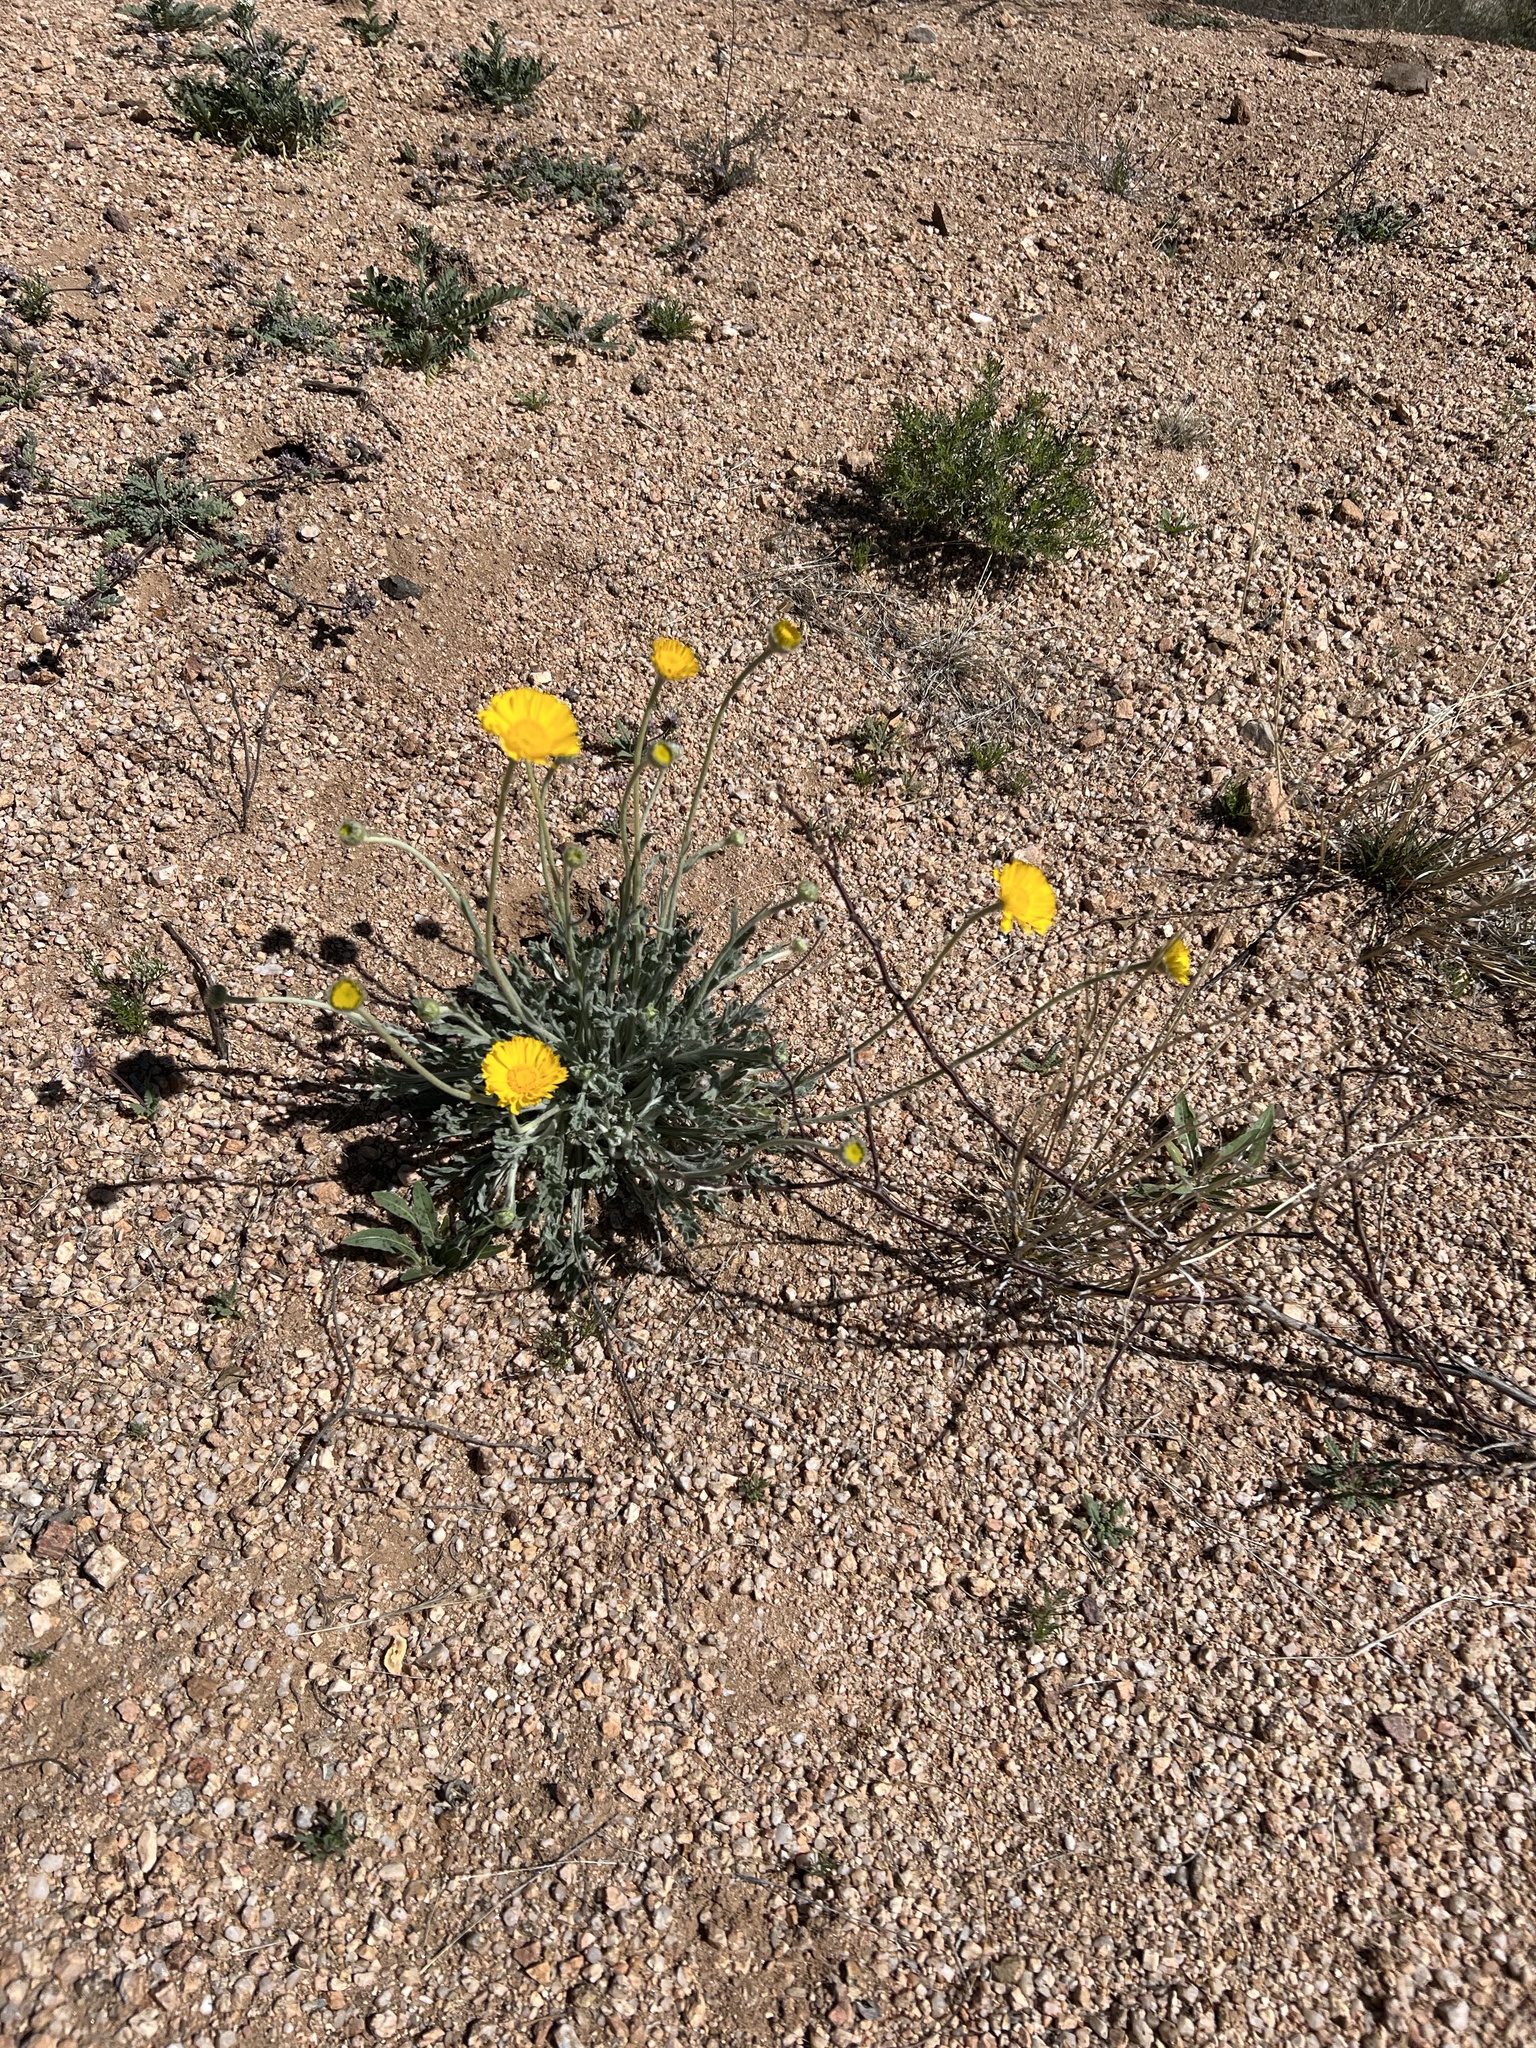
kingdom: Plantae
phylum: Tracheophyta
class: Magnoliopsida
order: Asterales
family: Asteraceae
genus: Baileya
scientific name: Baileya multiradiata
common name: Desert-marigold
